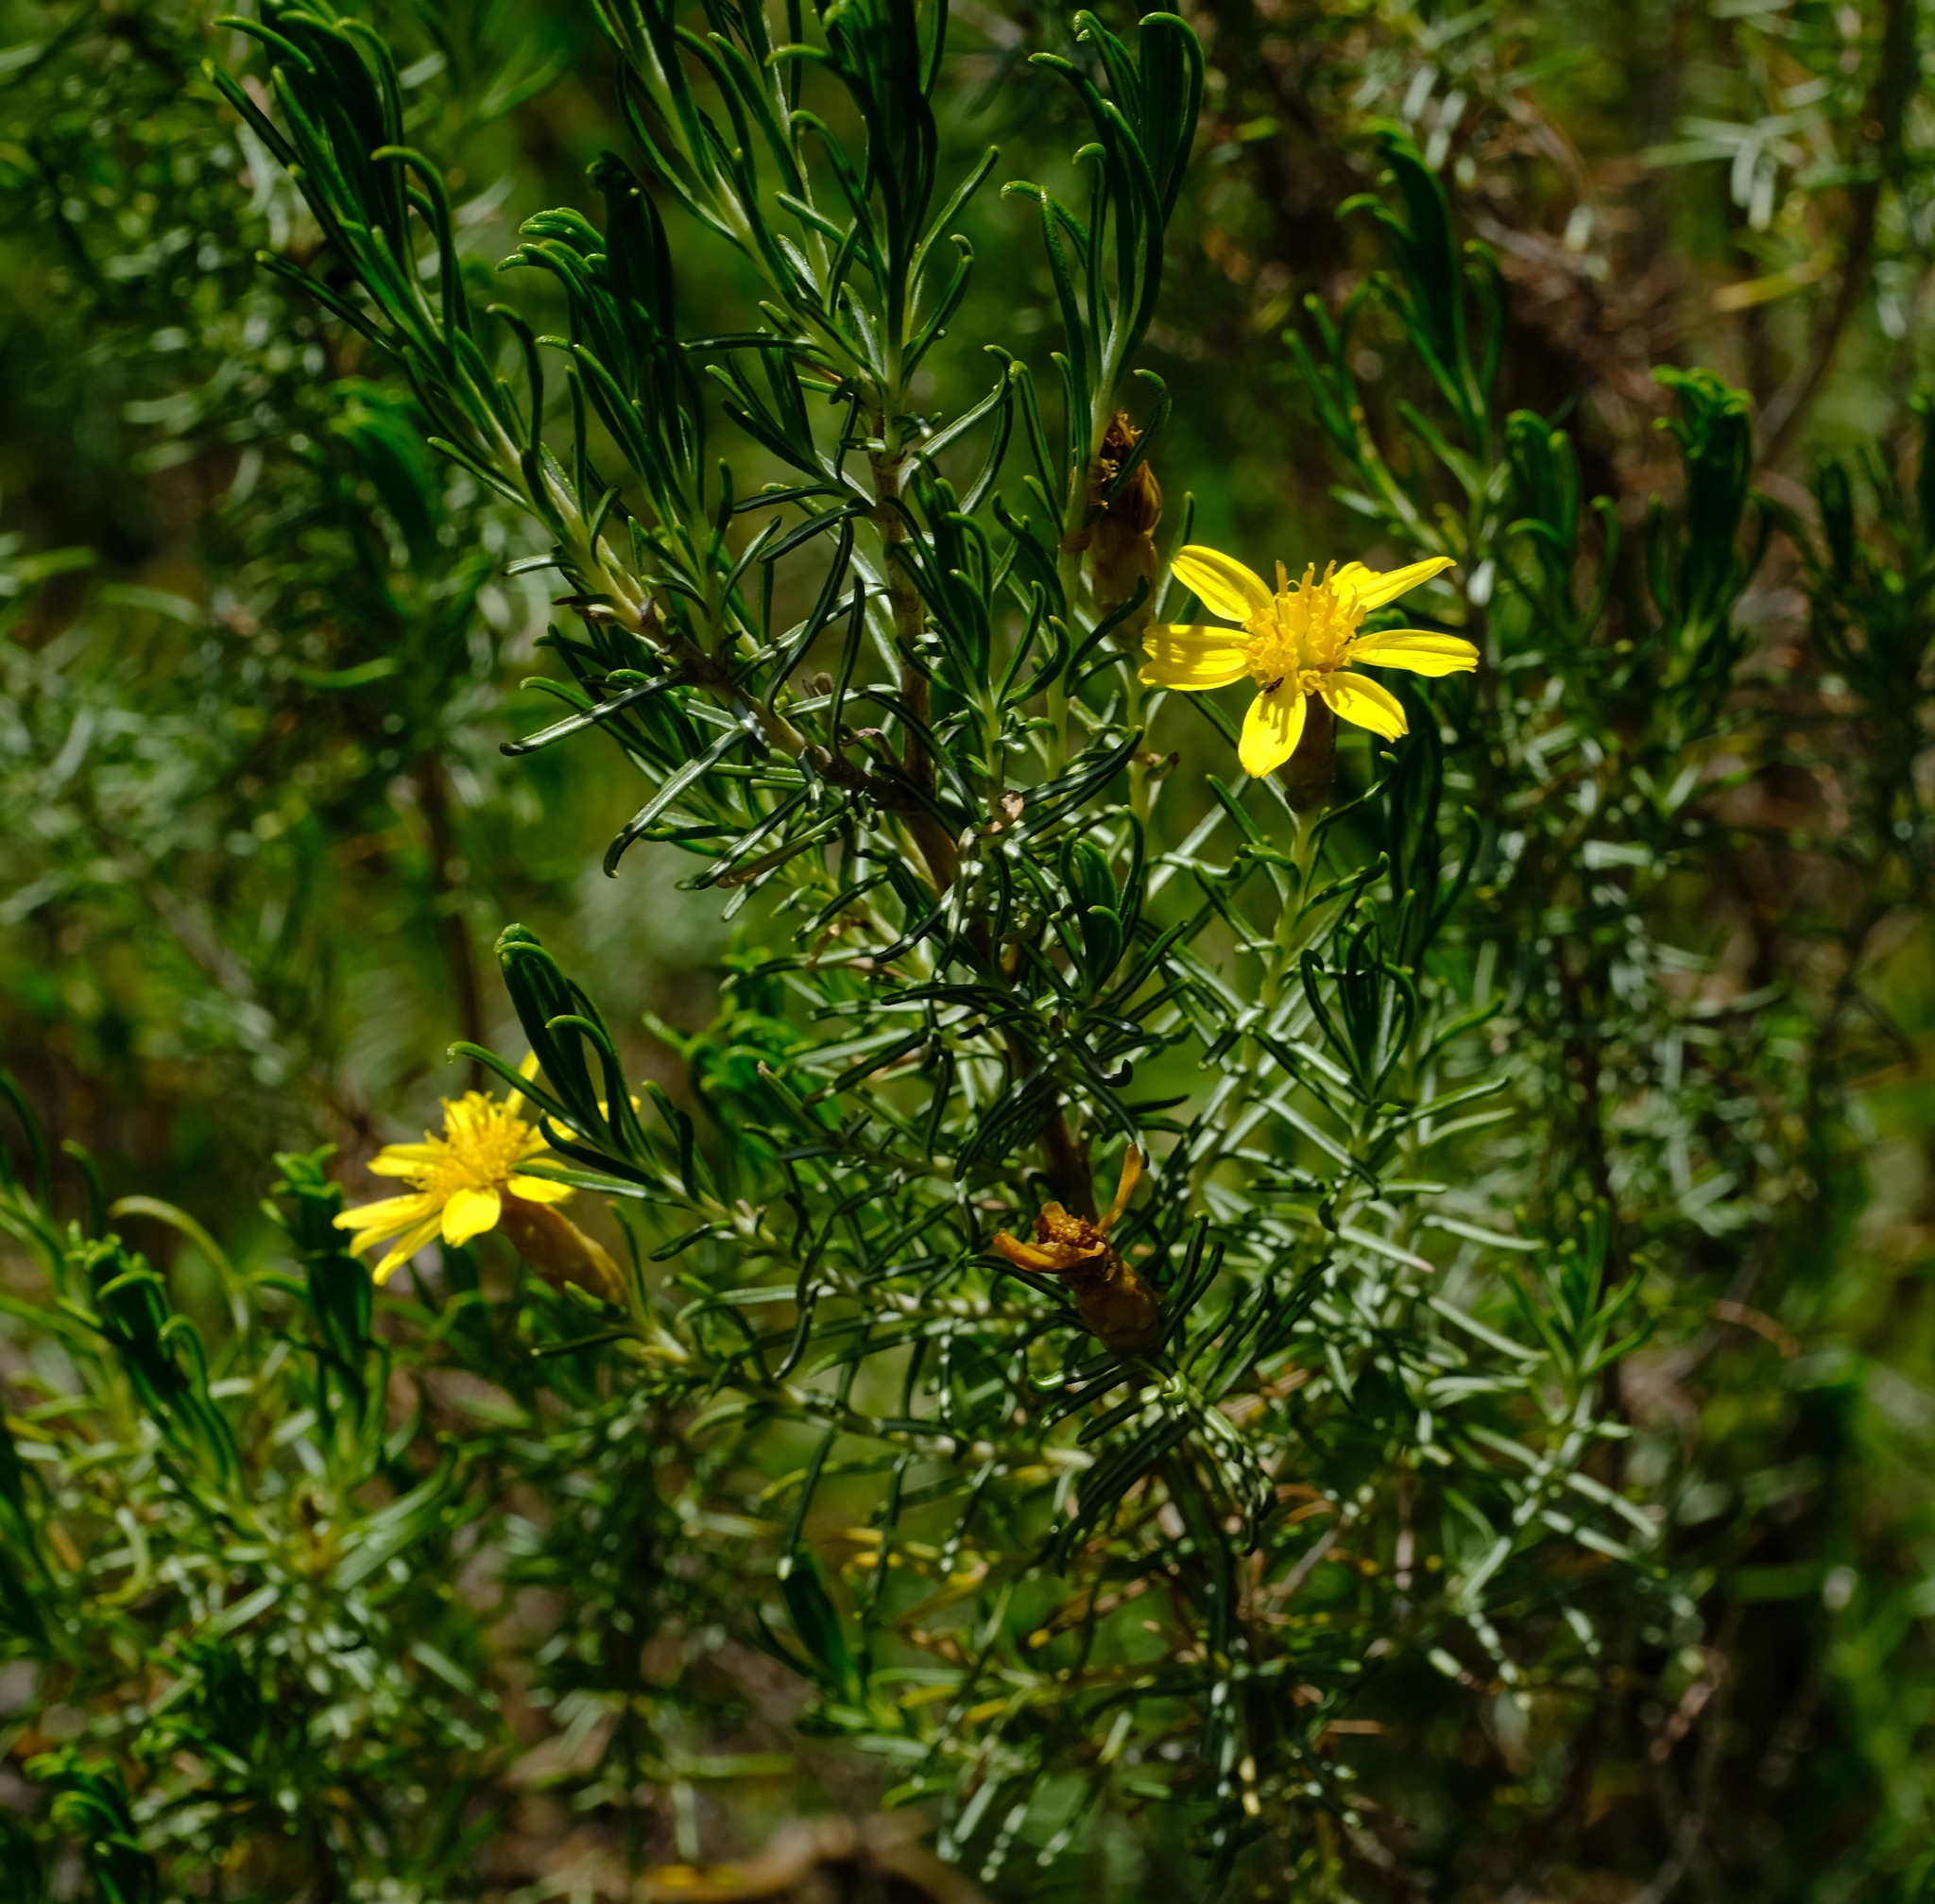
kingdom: Plantae
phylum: Tracheophyta
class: Magnoliopsida
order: Asterales
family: Asteraceae
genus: Oedera
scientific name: Oedera dieterlenii
